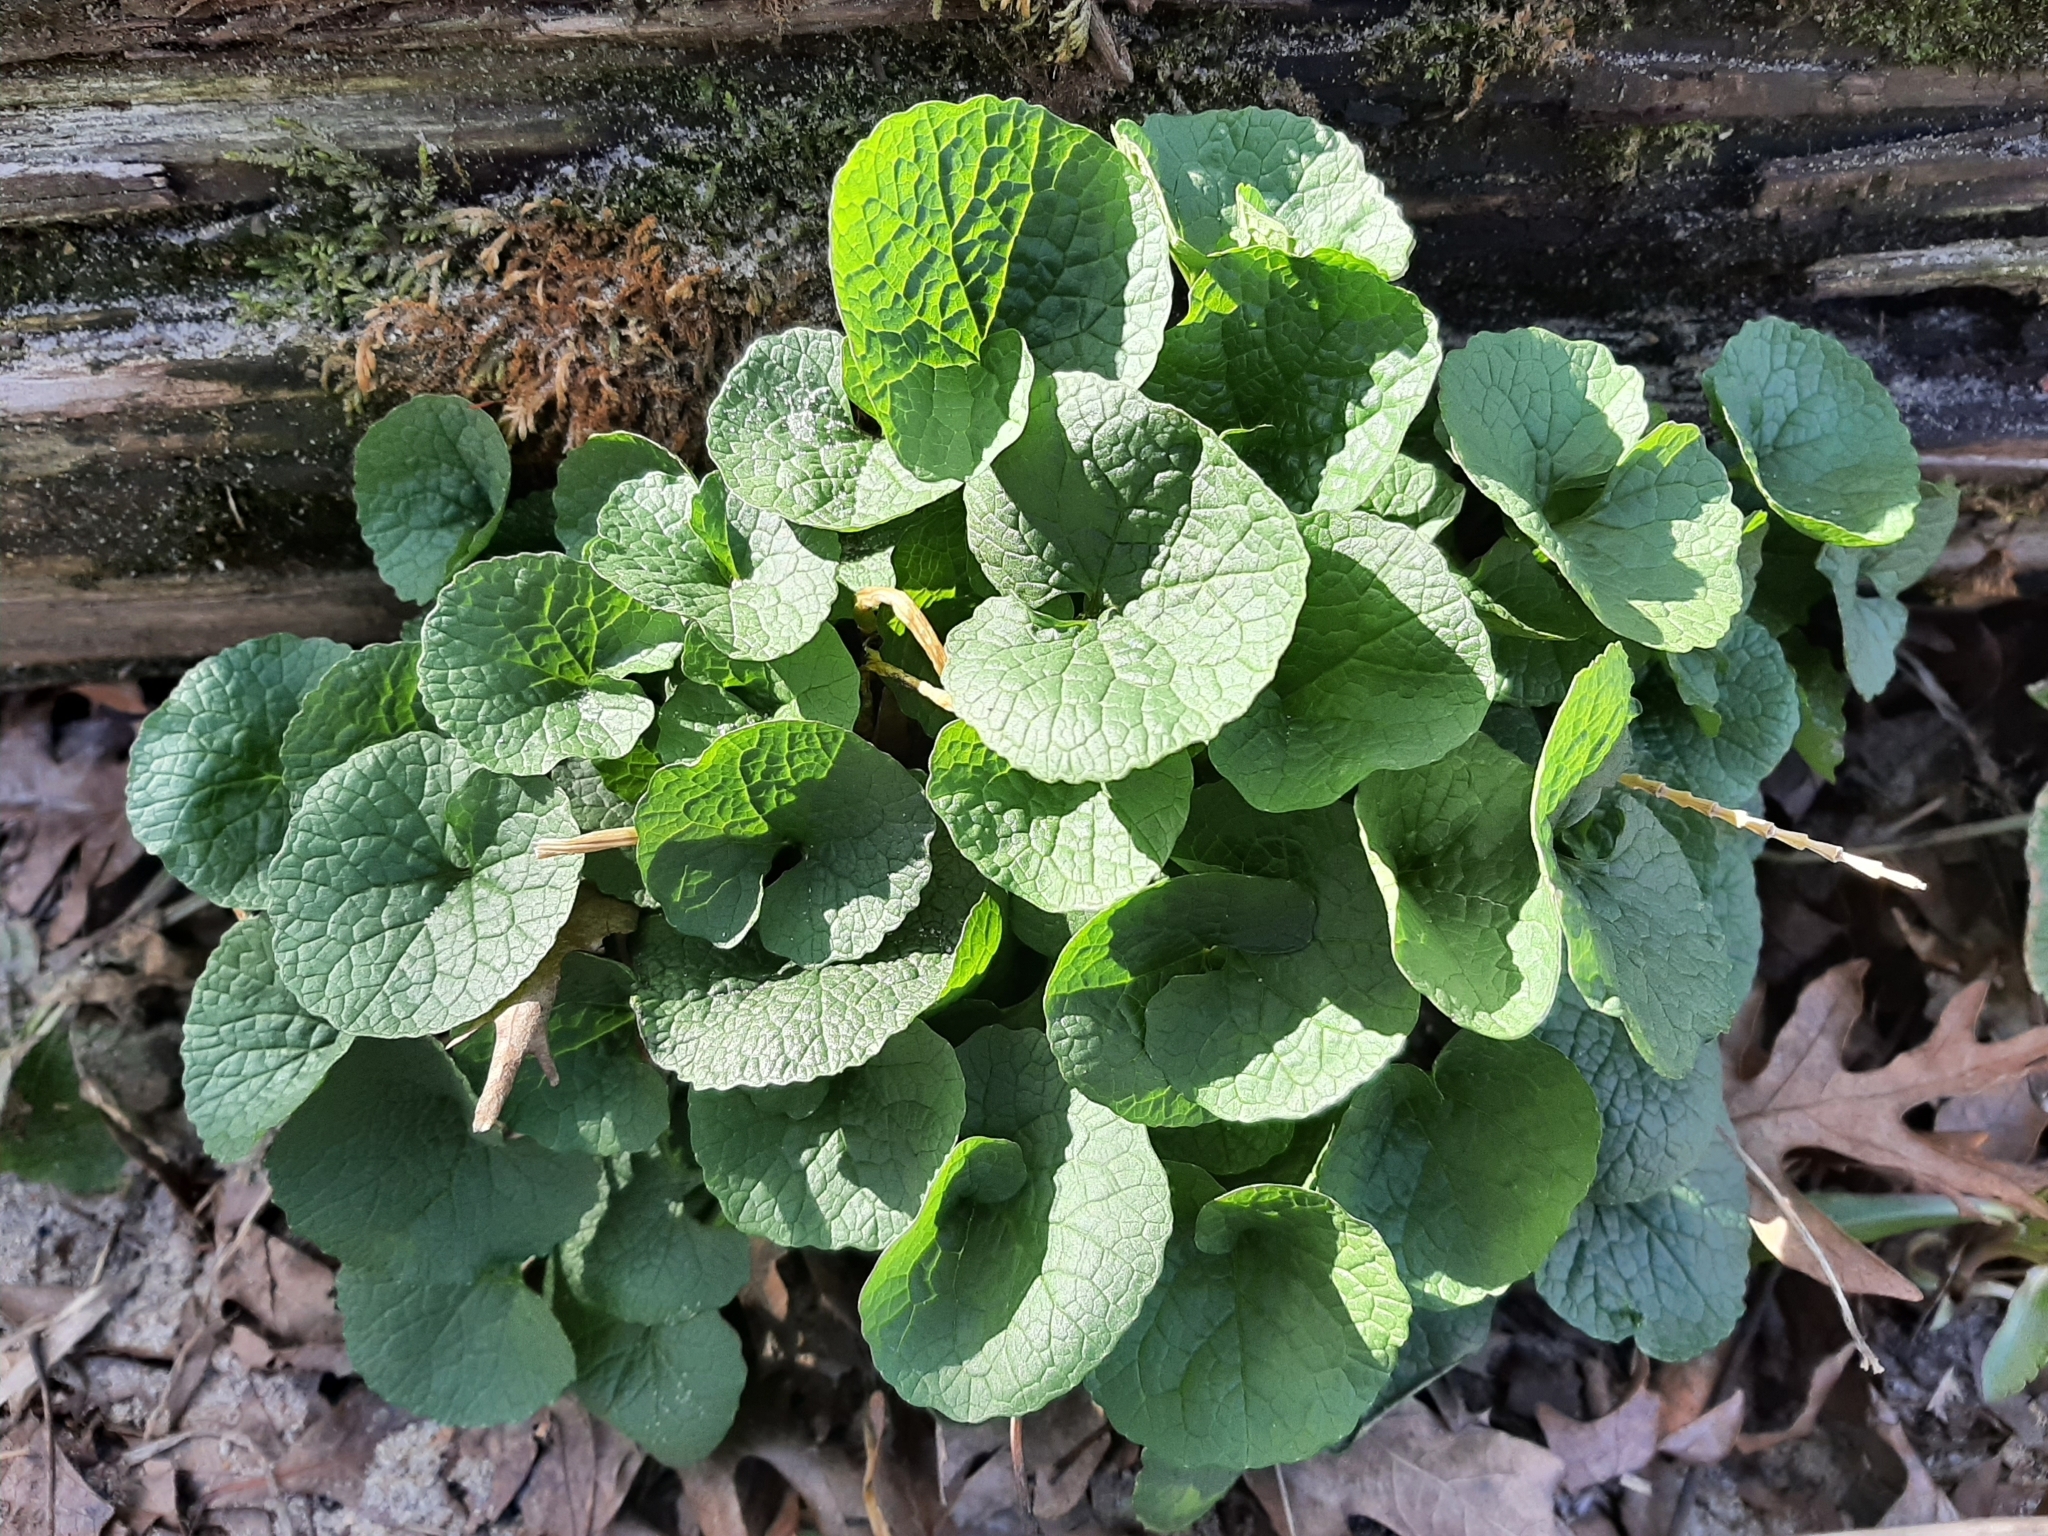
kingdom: Plantae
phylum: Tracheophyta
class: Magnoliopsida
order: Brassicales
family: Brassicaceae
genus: Alliaria
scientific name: Alliaria petiolata
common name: Garlic mustard
